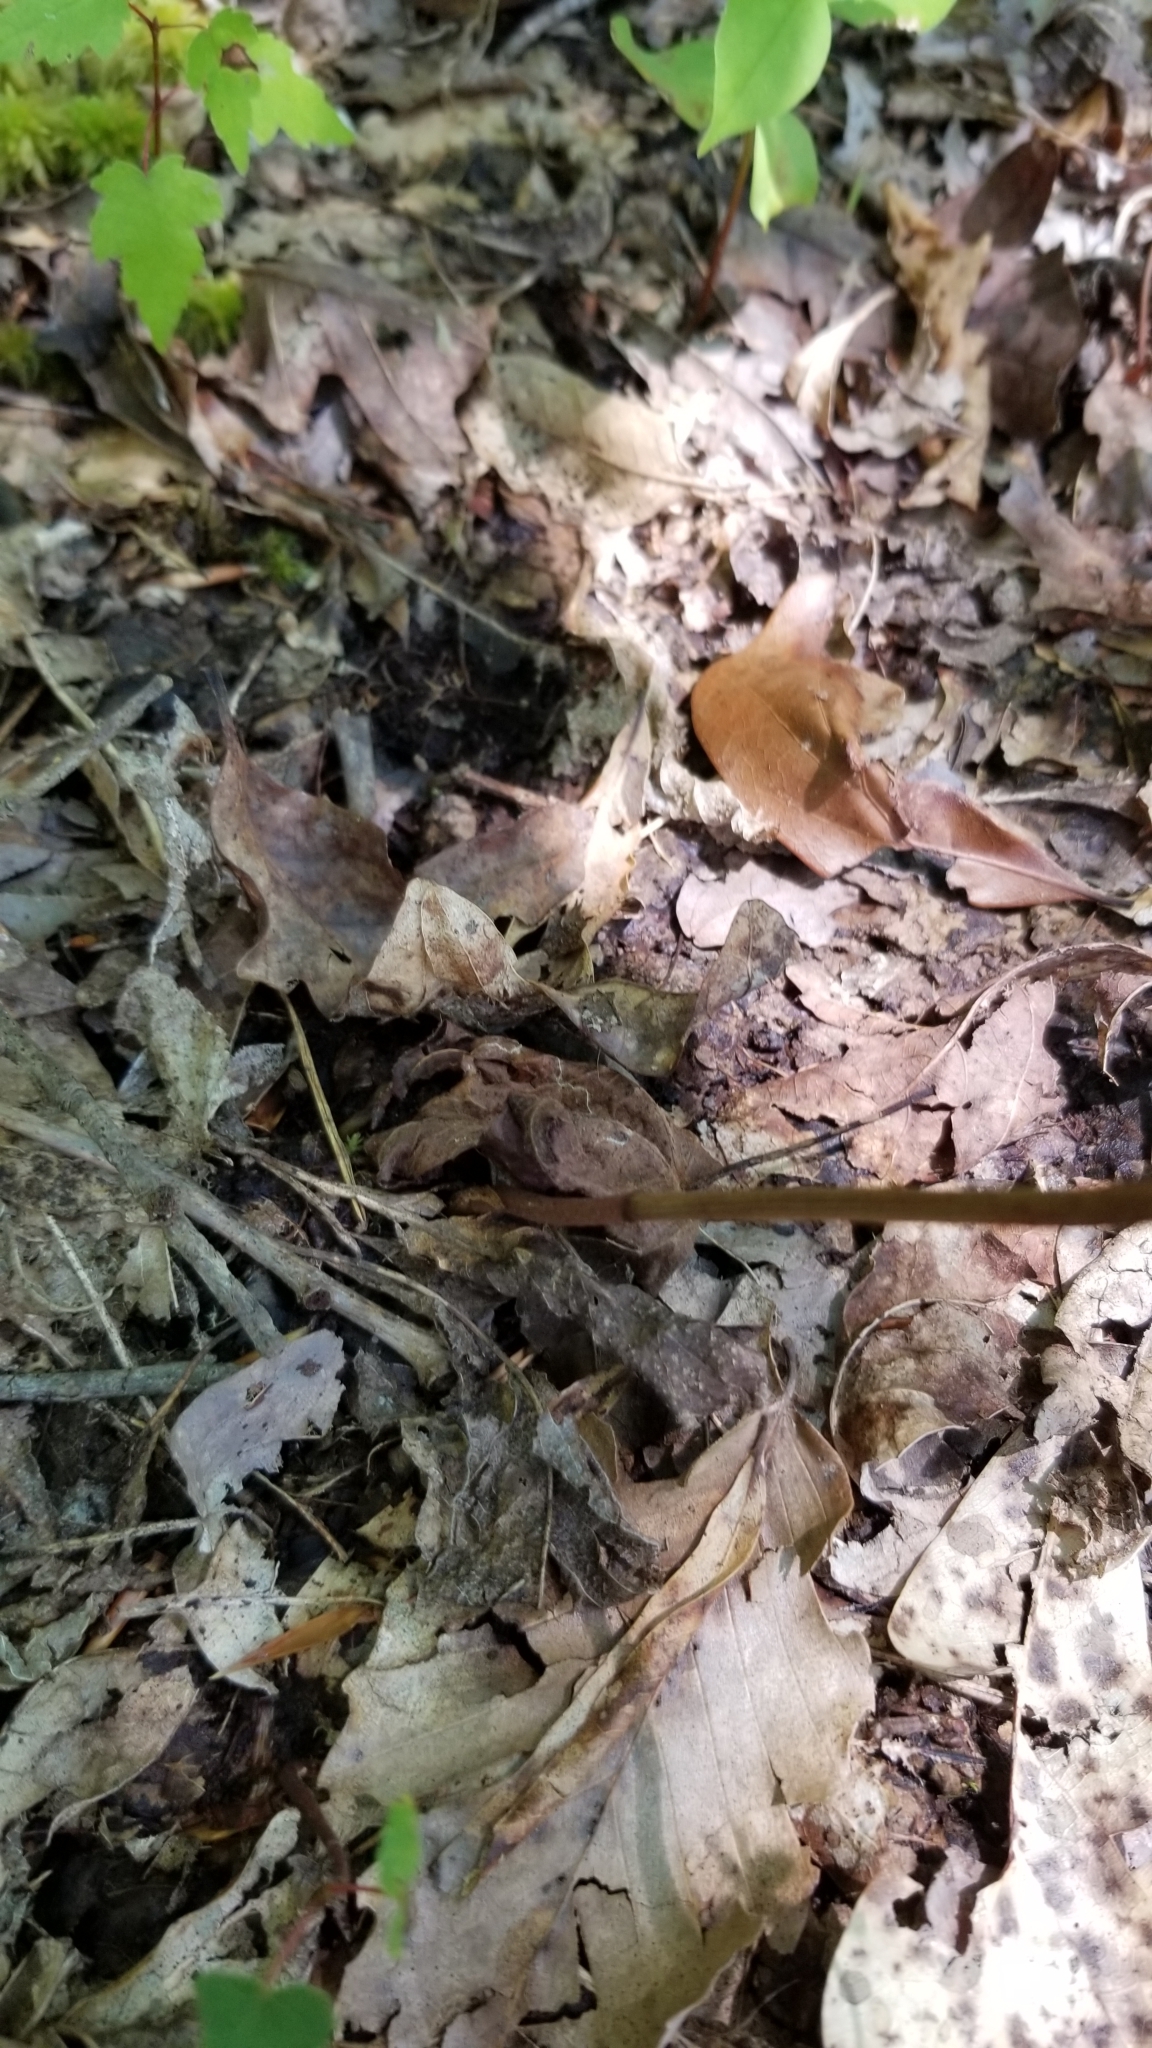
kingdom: Plantae
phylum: Tracheophyta
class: Liliopsida
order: Asparagales
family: Orchidaceae
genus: Tipularia
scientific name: Tipularia discolor
